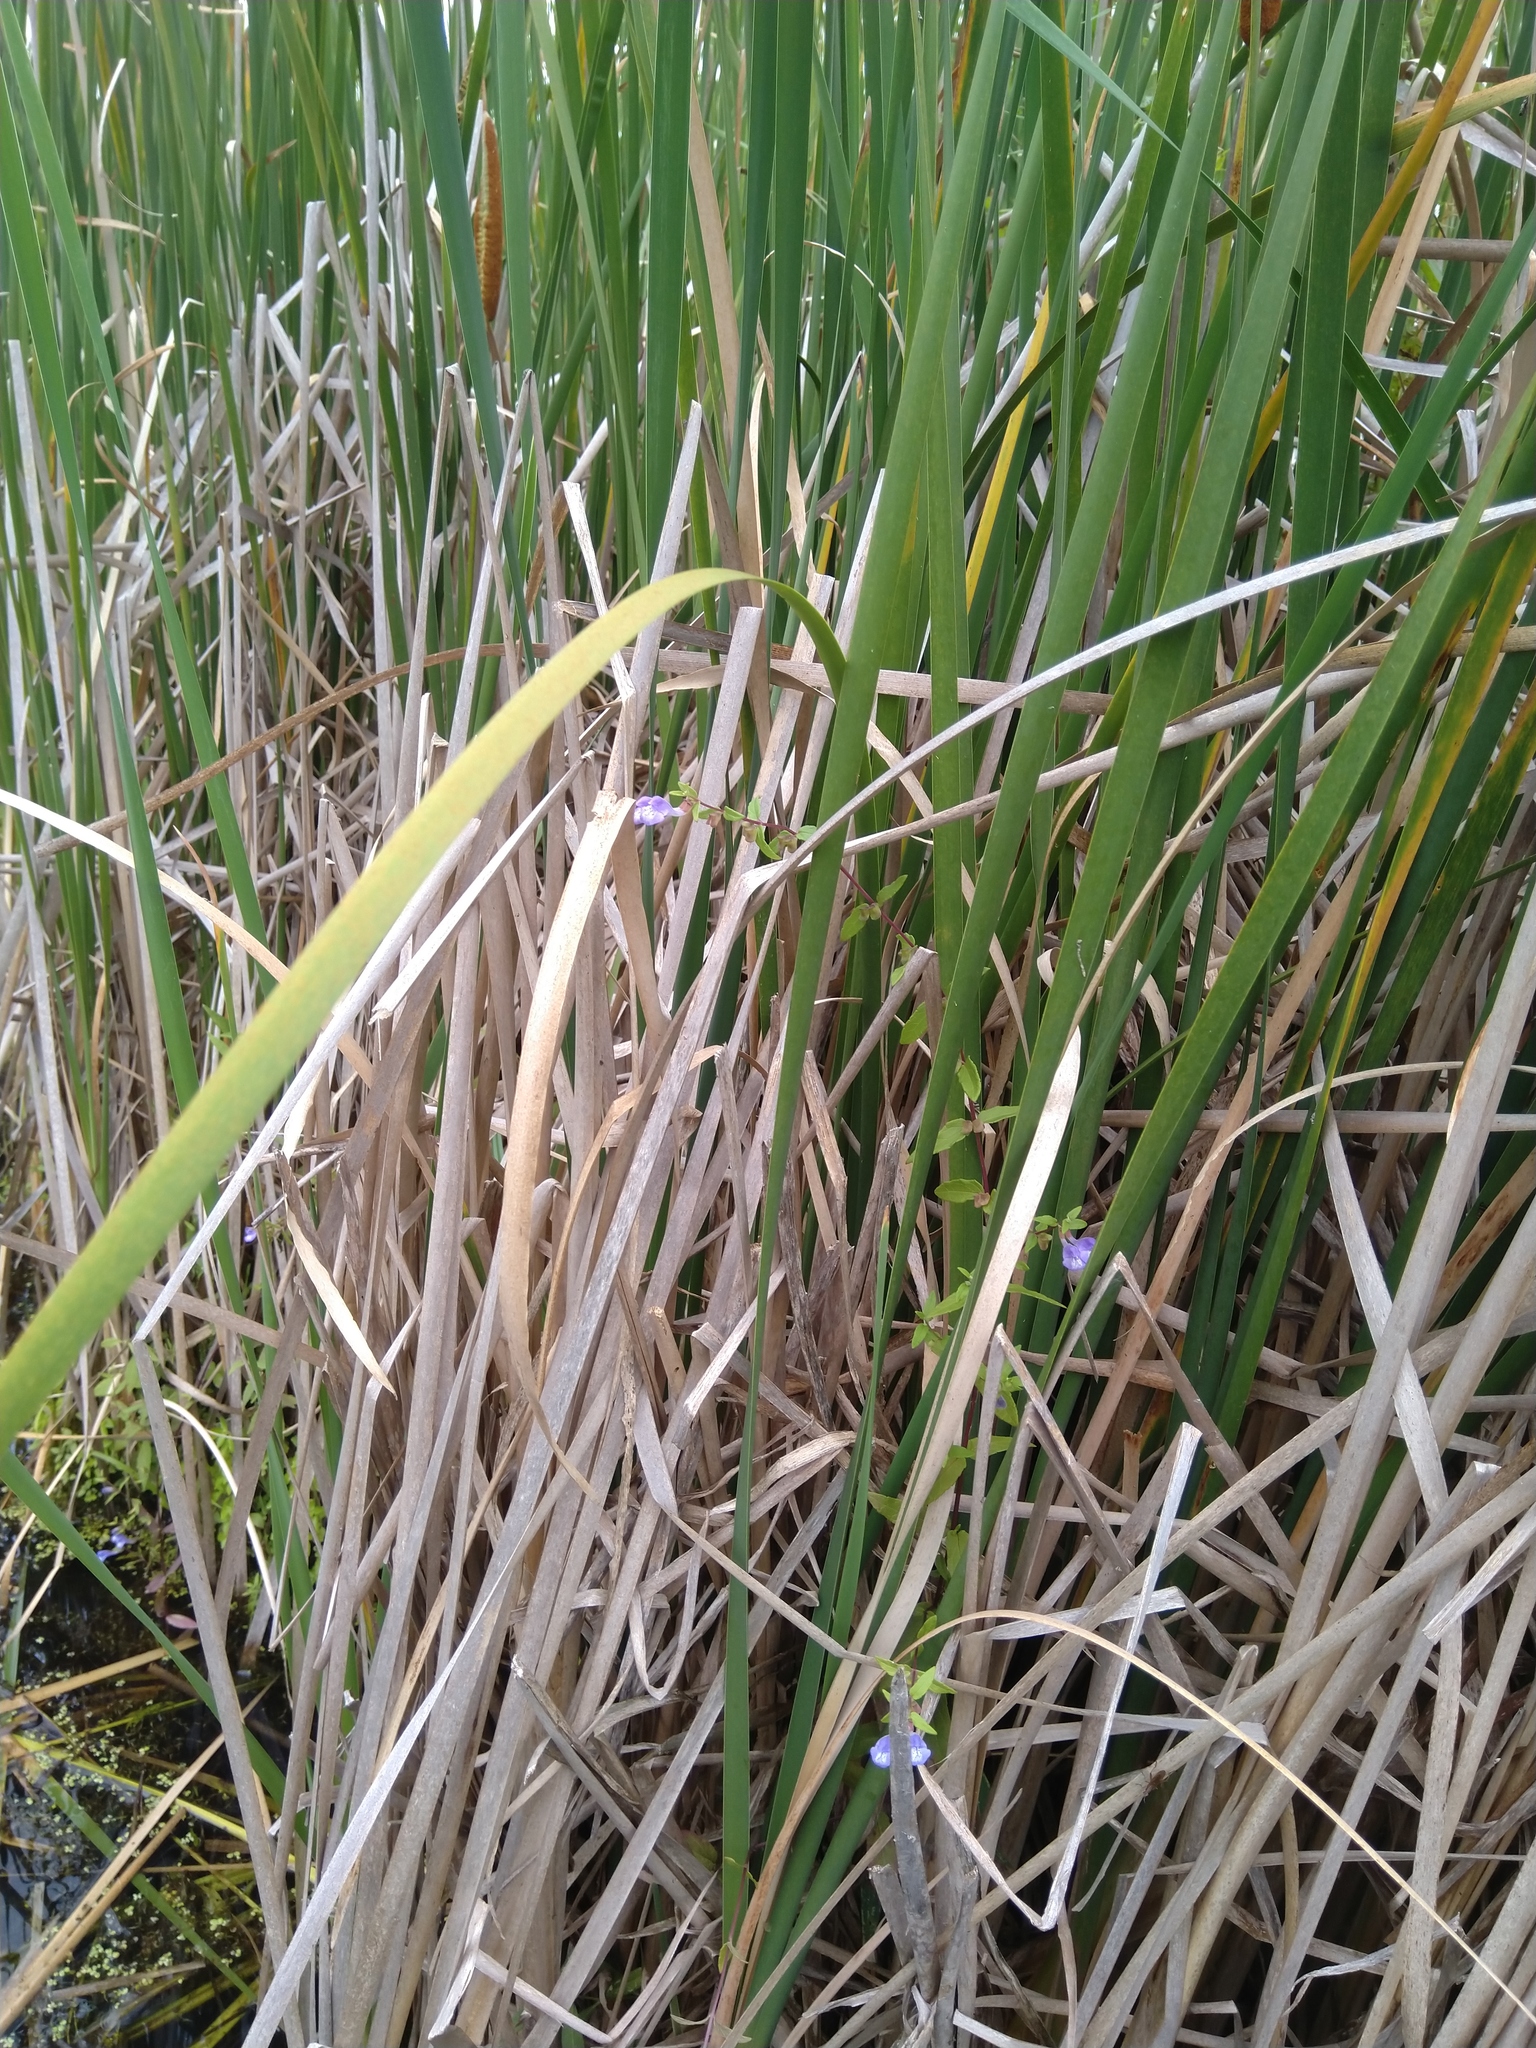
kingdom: Plantae
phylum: Tracheophyta
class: Magnoliopsida
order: Lamiales
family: Lamiaceae
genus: Scutellaria
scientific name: Scutellaria galericulata
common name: Skullcap
